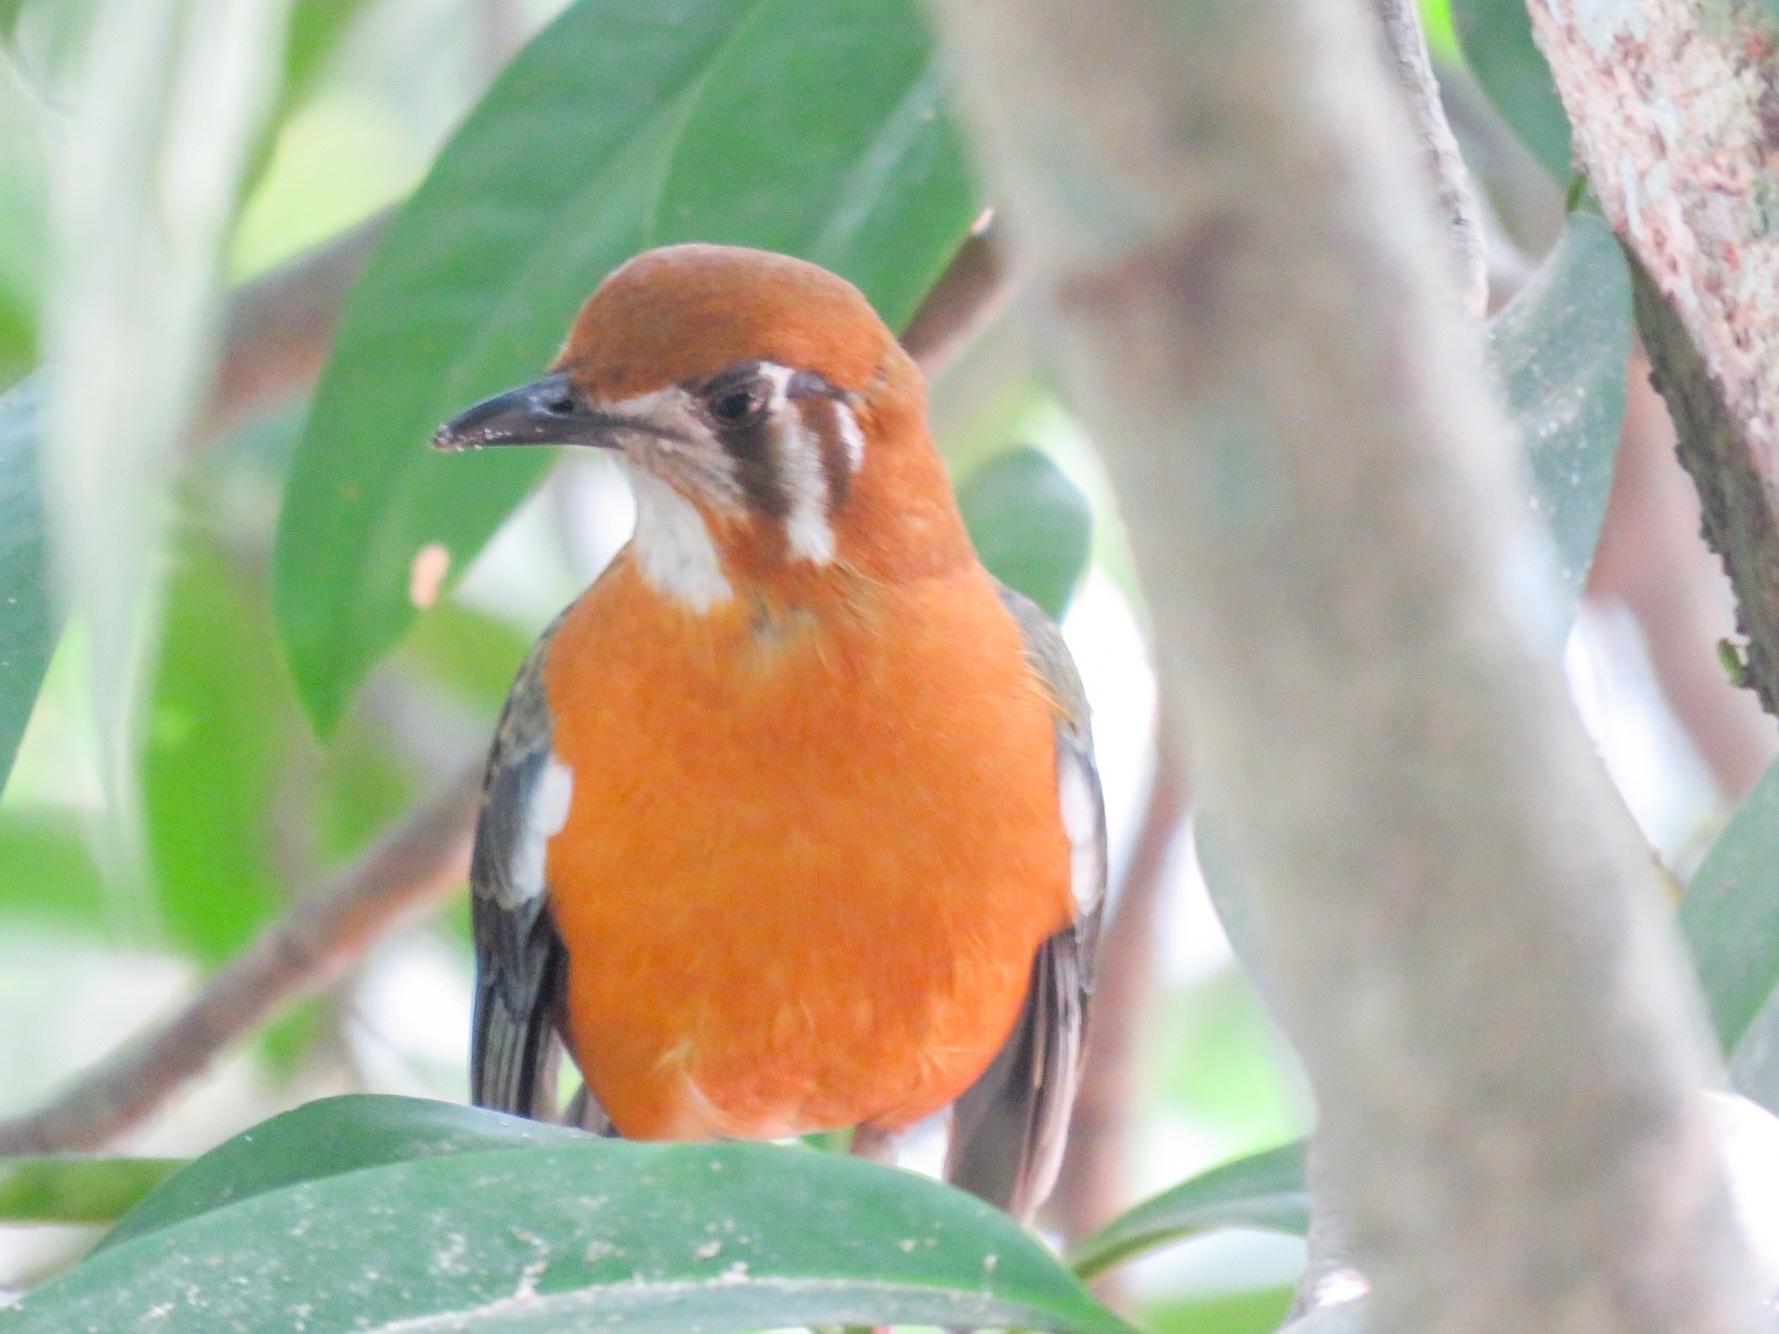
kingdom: Animalia
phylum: Chordata
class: Aves
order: Passeriformes
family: Turdidae
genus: Geokichla
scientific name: Geokichla citrina
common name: Orange-headed thrush
